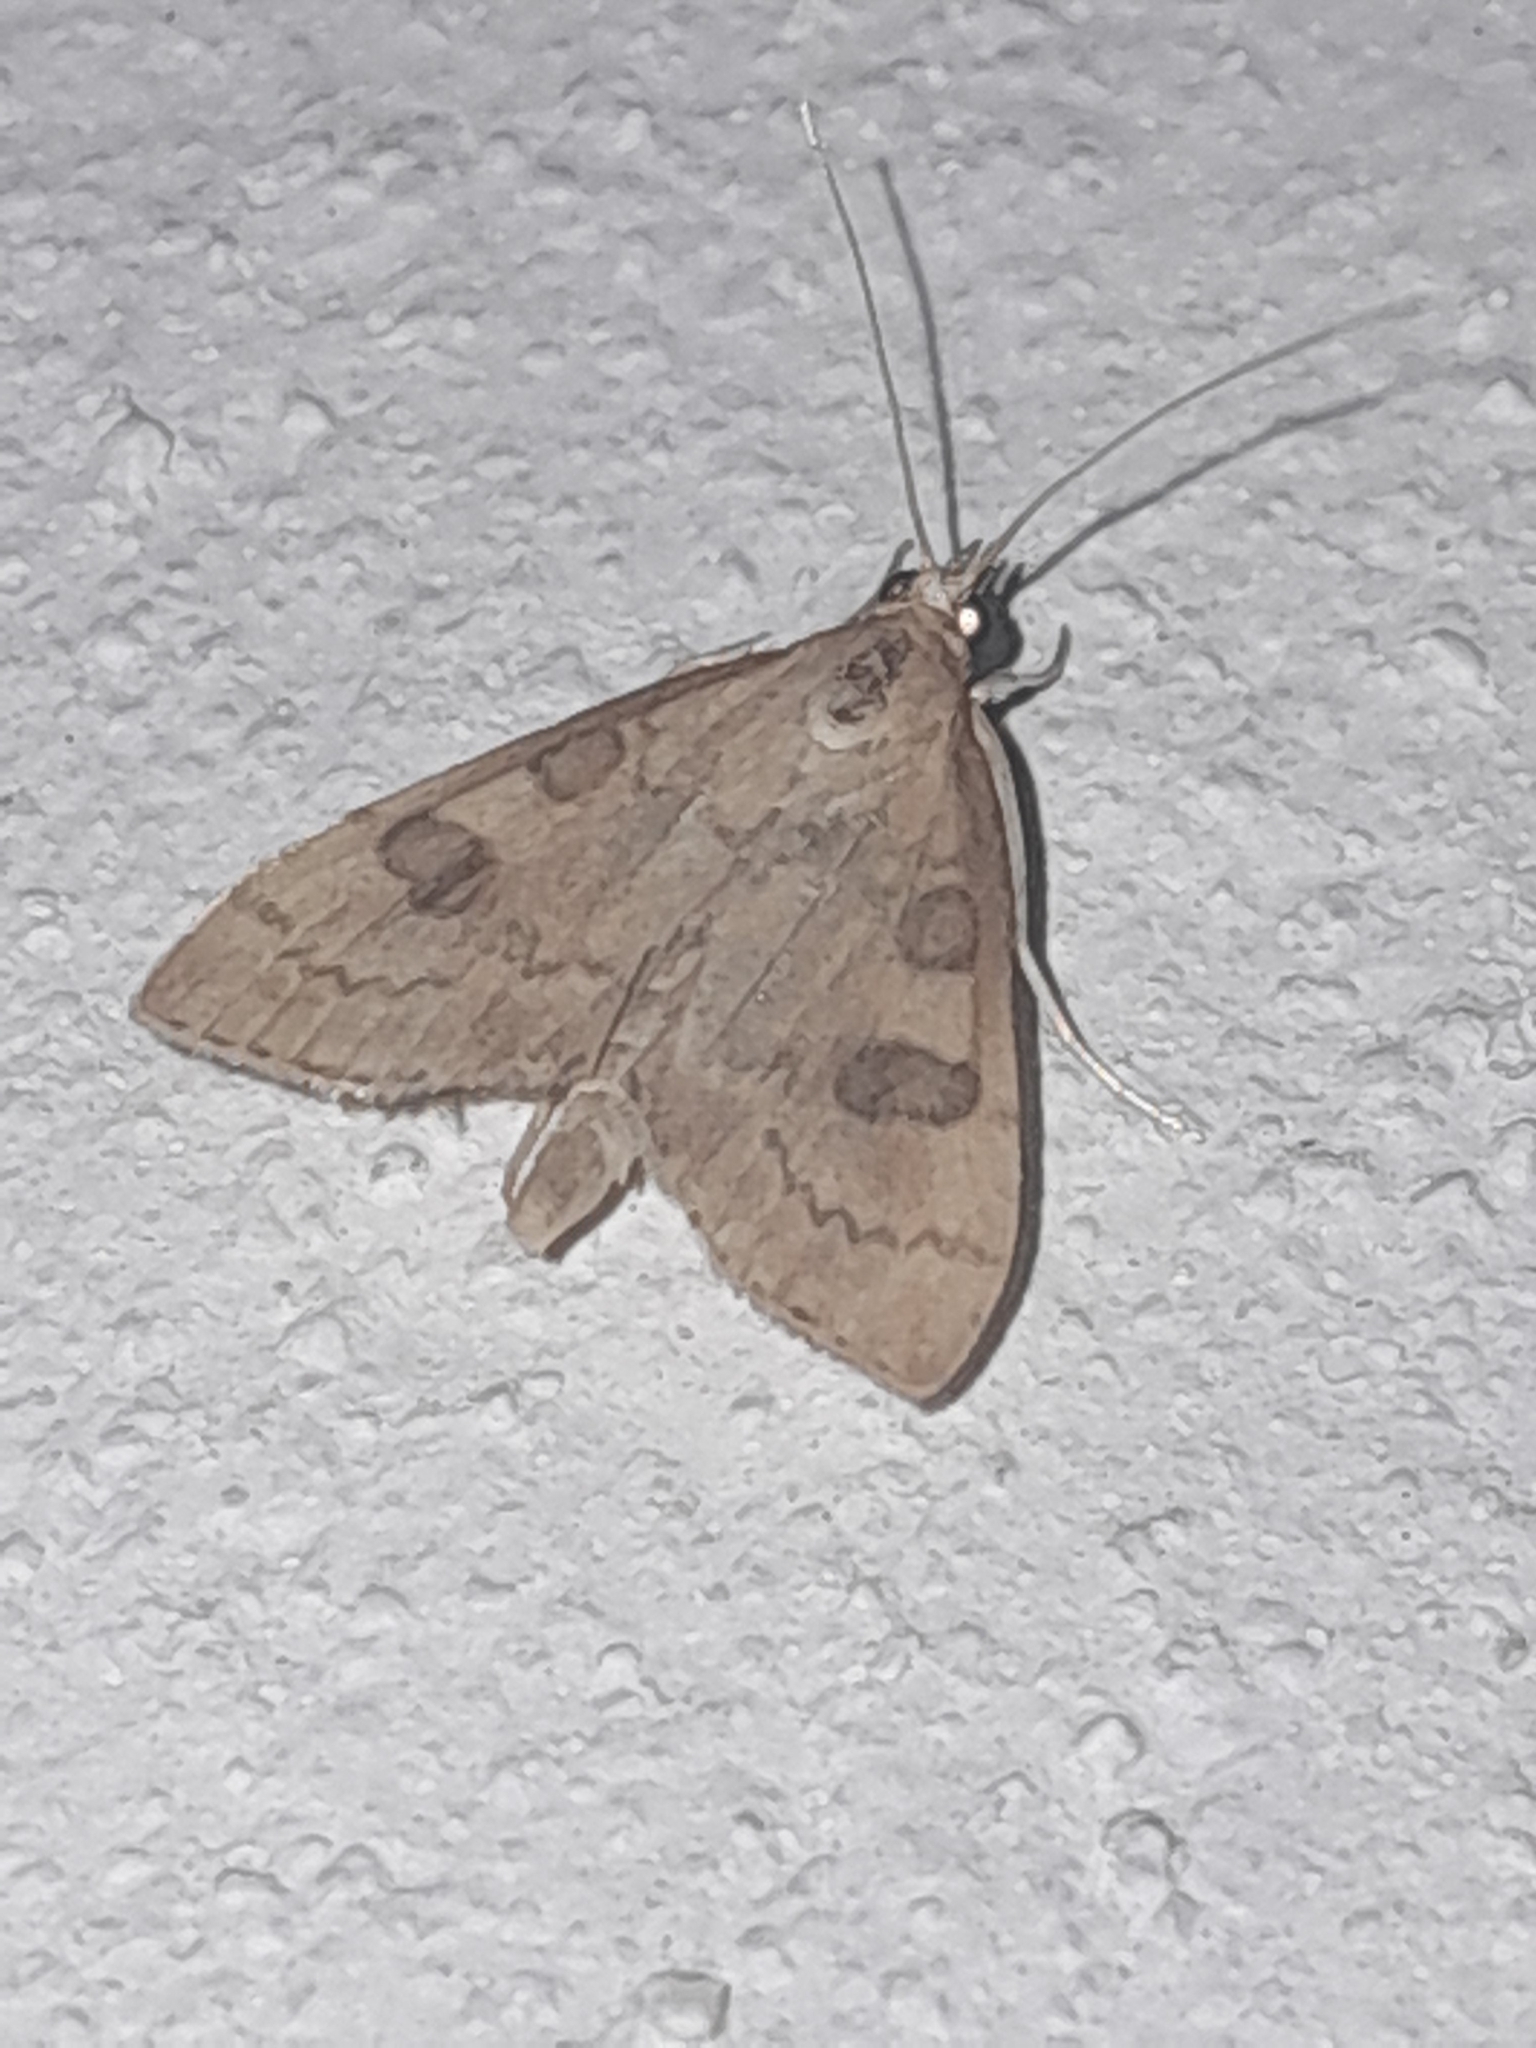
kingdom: Animalia
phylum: Arthropoda
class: Insecta
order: Lepidoptera
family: Crambidae
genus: Udea
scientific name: Udea fulvalis
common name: Fulvous pearl
